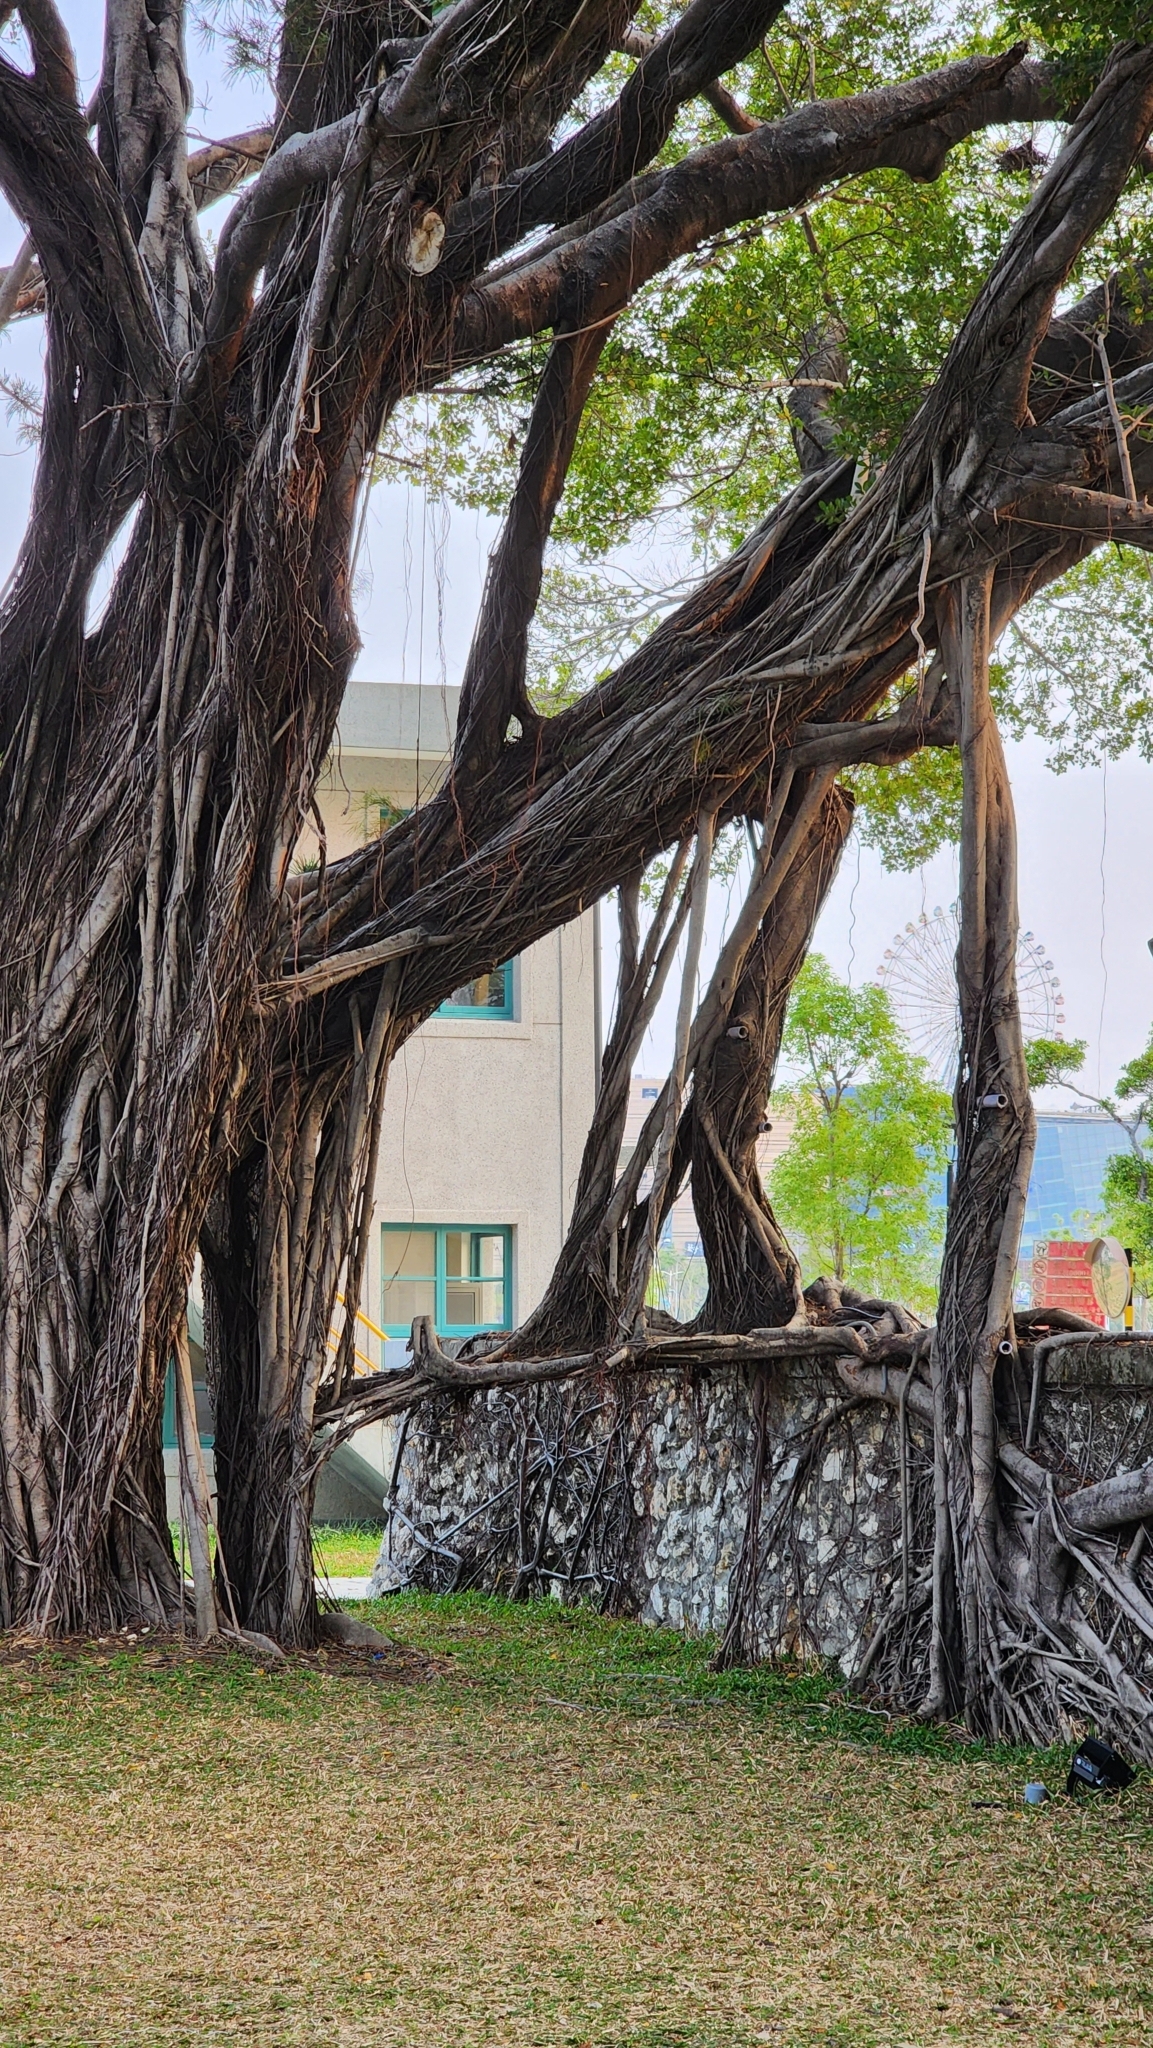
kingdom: Plantae
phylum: Tracheophyta
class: Magnoliopsida
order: Rosales
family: Moraceae
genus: Ficus
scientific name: Ficus microcarpa
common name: Chinese banyan
